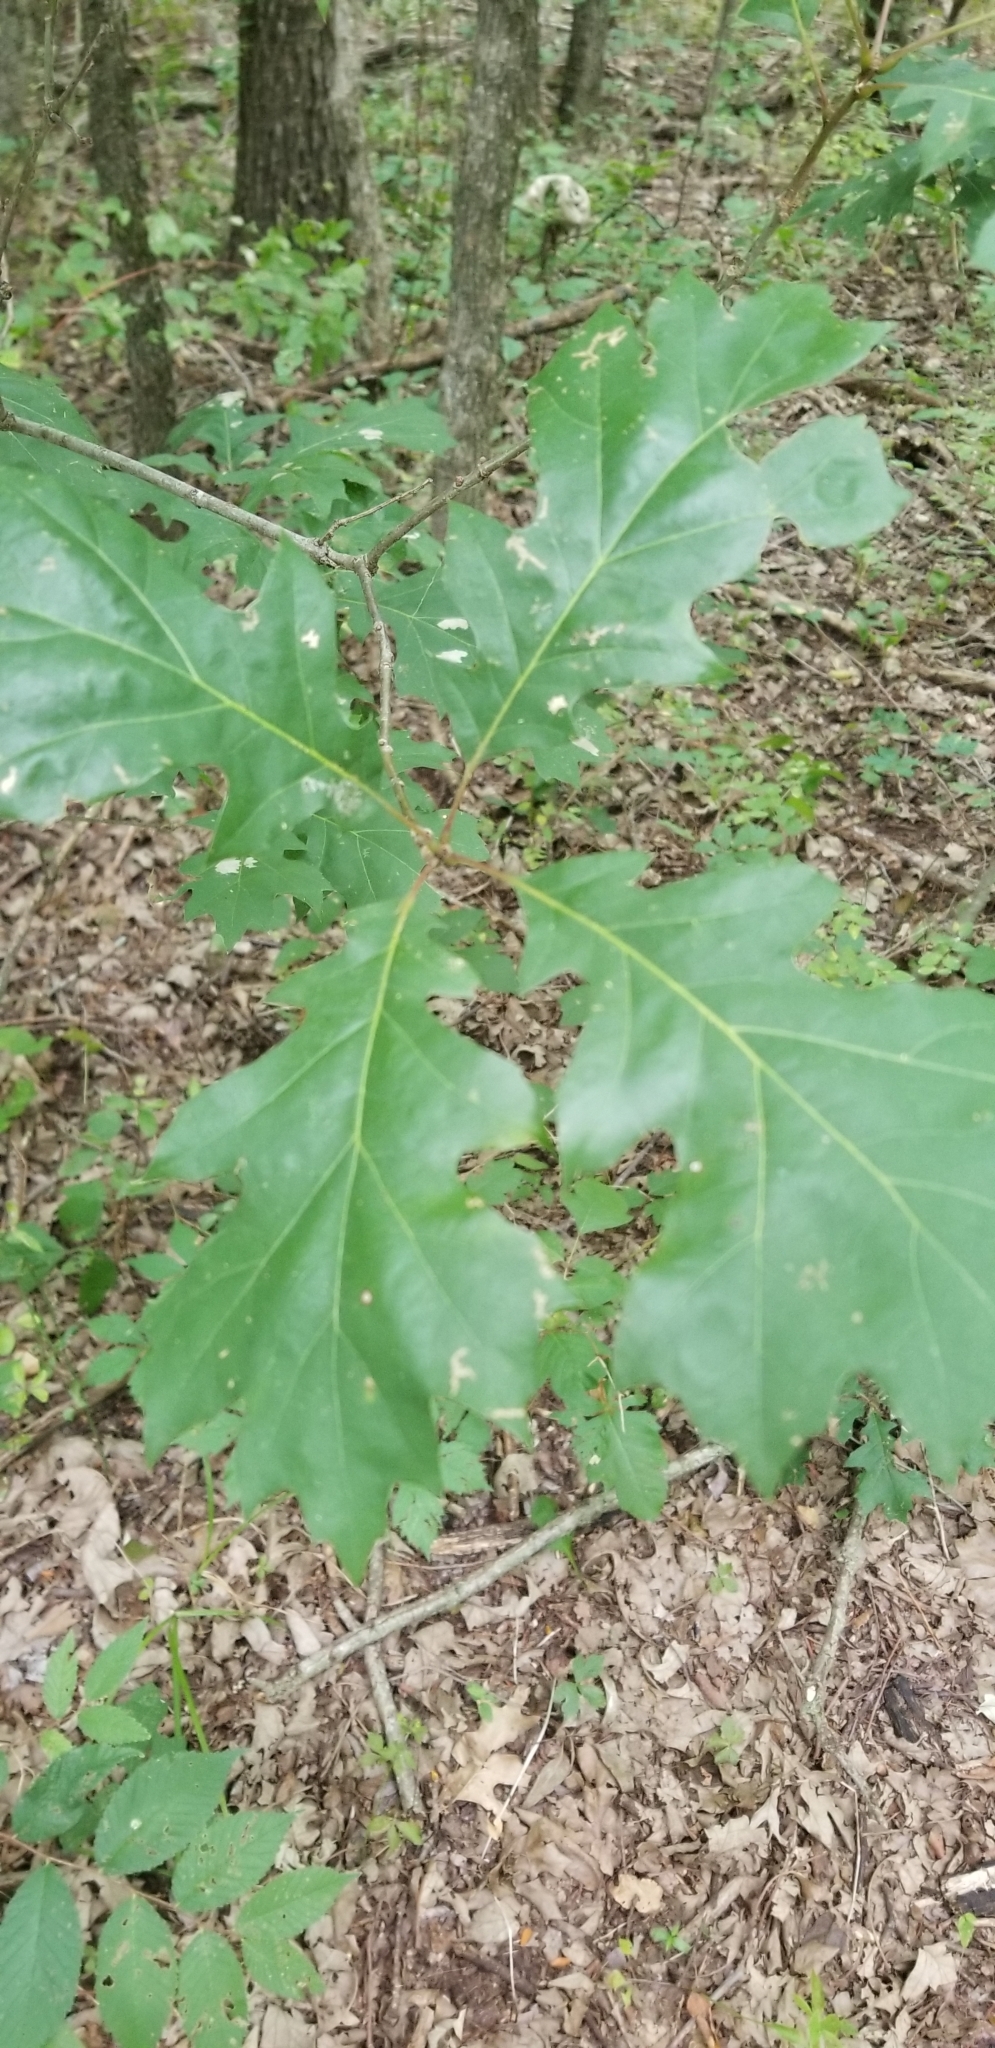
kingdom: Plantae
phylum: Tracheophyta
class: Magnoliopsida
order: Fagales
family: Fagaceae
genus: Quercus
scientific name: Quercus macrocarpa
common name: Bur oak
